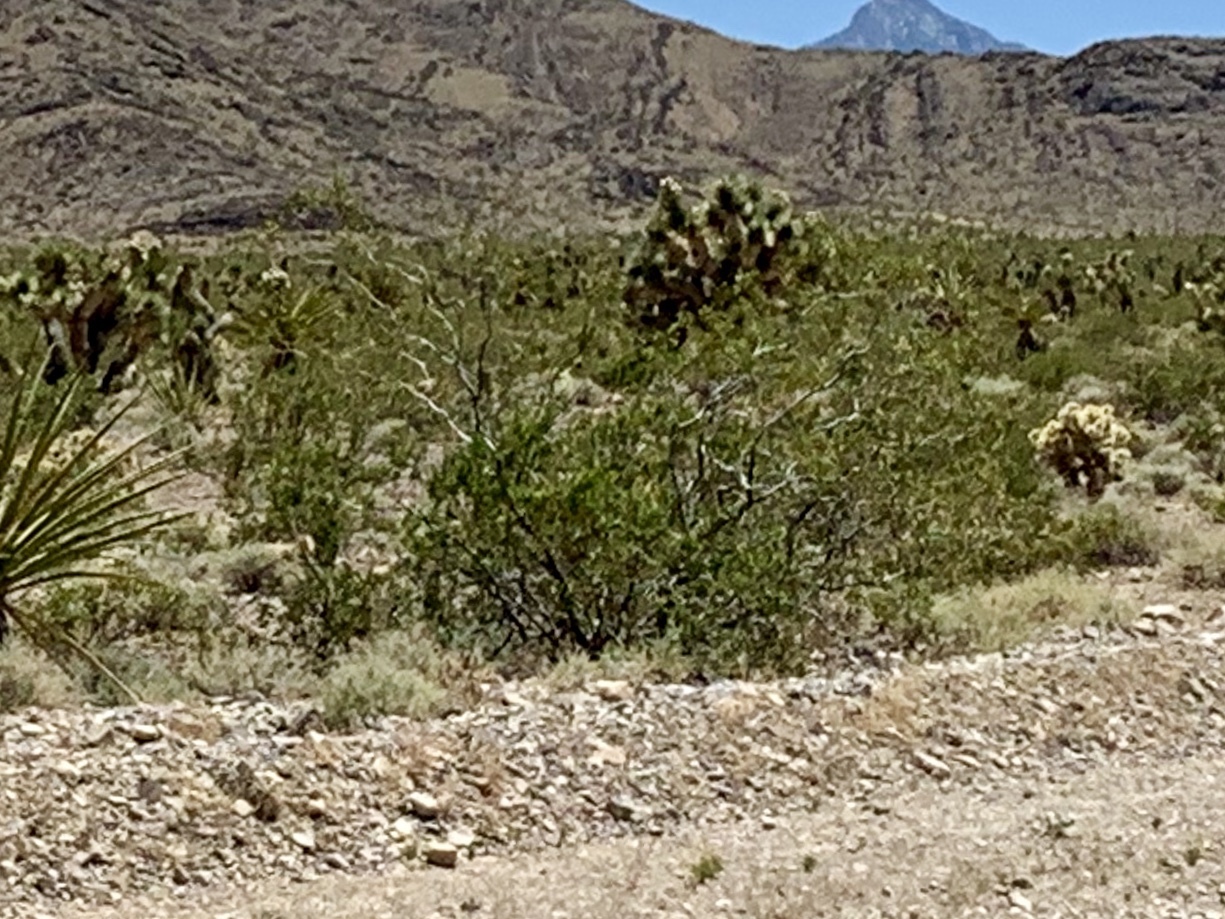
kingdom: Plantae
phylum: Tracheophyta
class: Magnoliopsida
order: Zygophyllales
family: Zygophyllaceae
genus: Larrea
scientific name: Larrea tridentata
